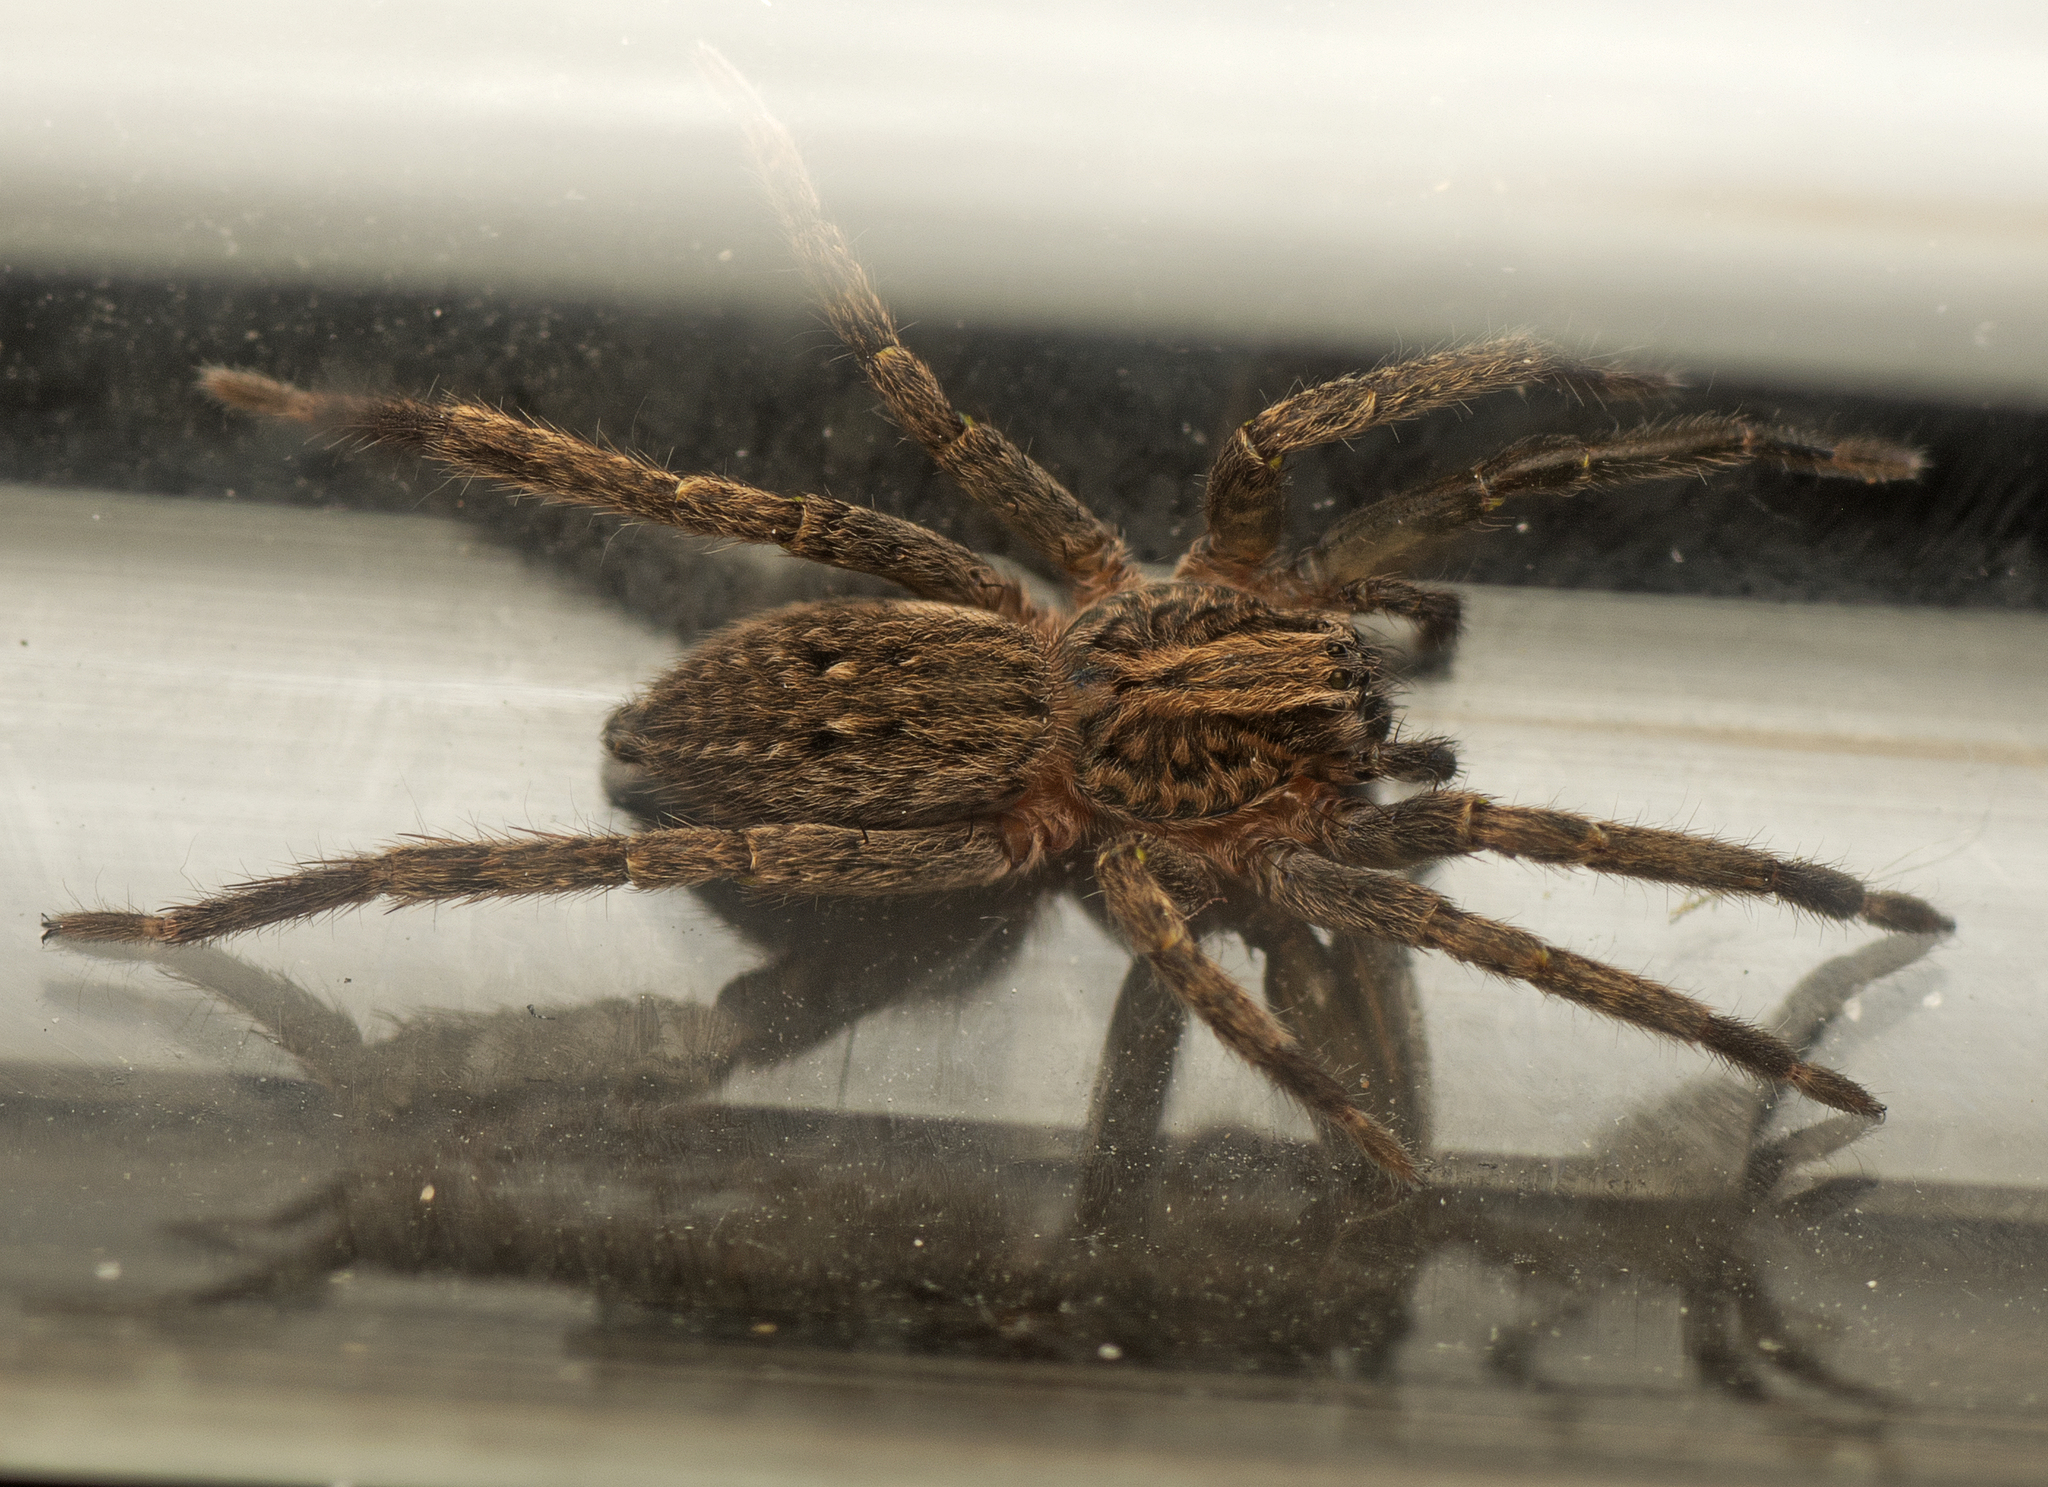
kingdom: Animalia
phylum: Arthropoda
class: Arachnida
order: Araneae
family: Miturgidae
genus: Mituliodon
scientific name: Mituliodon tarantulinus
